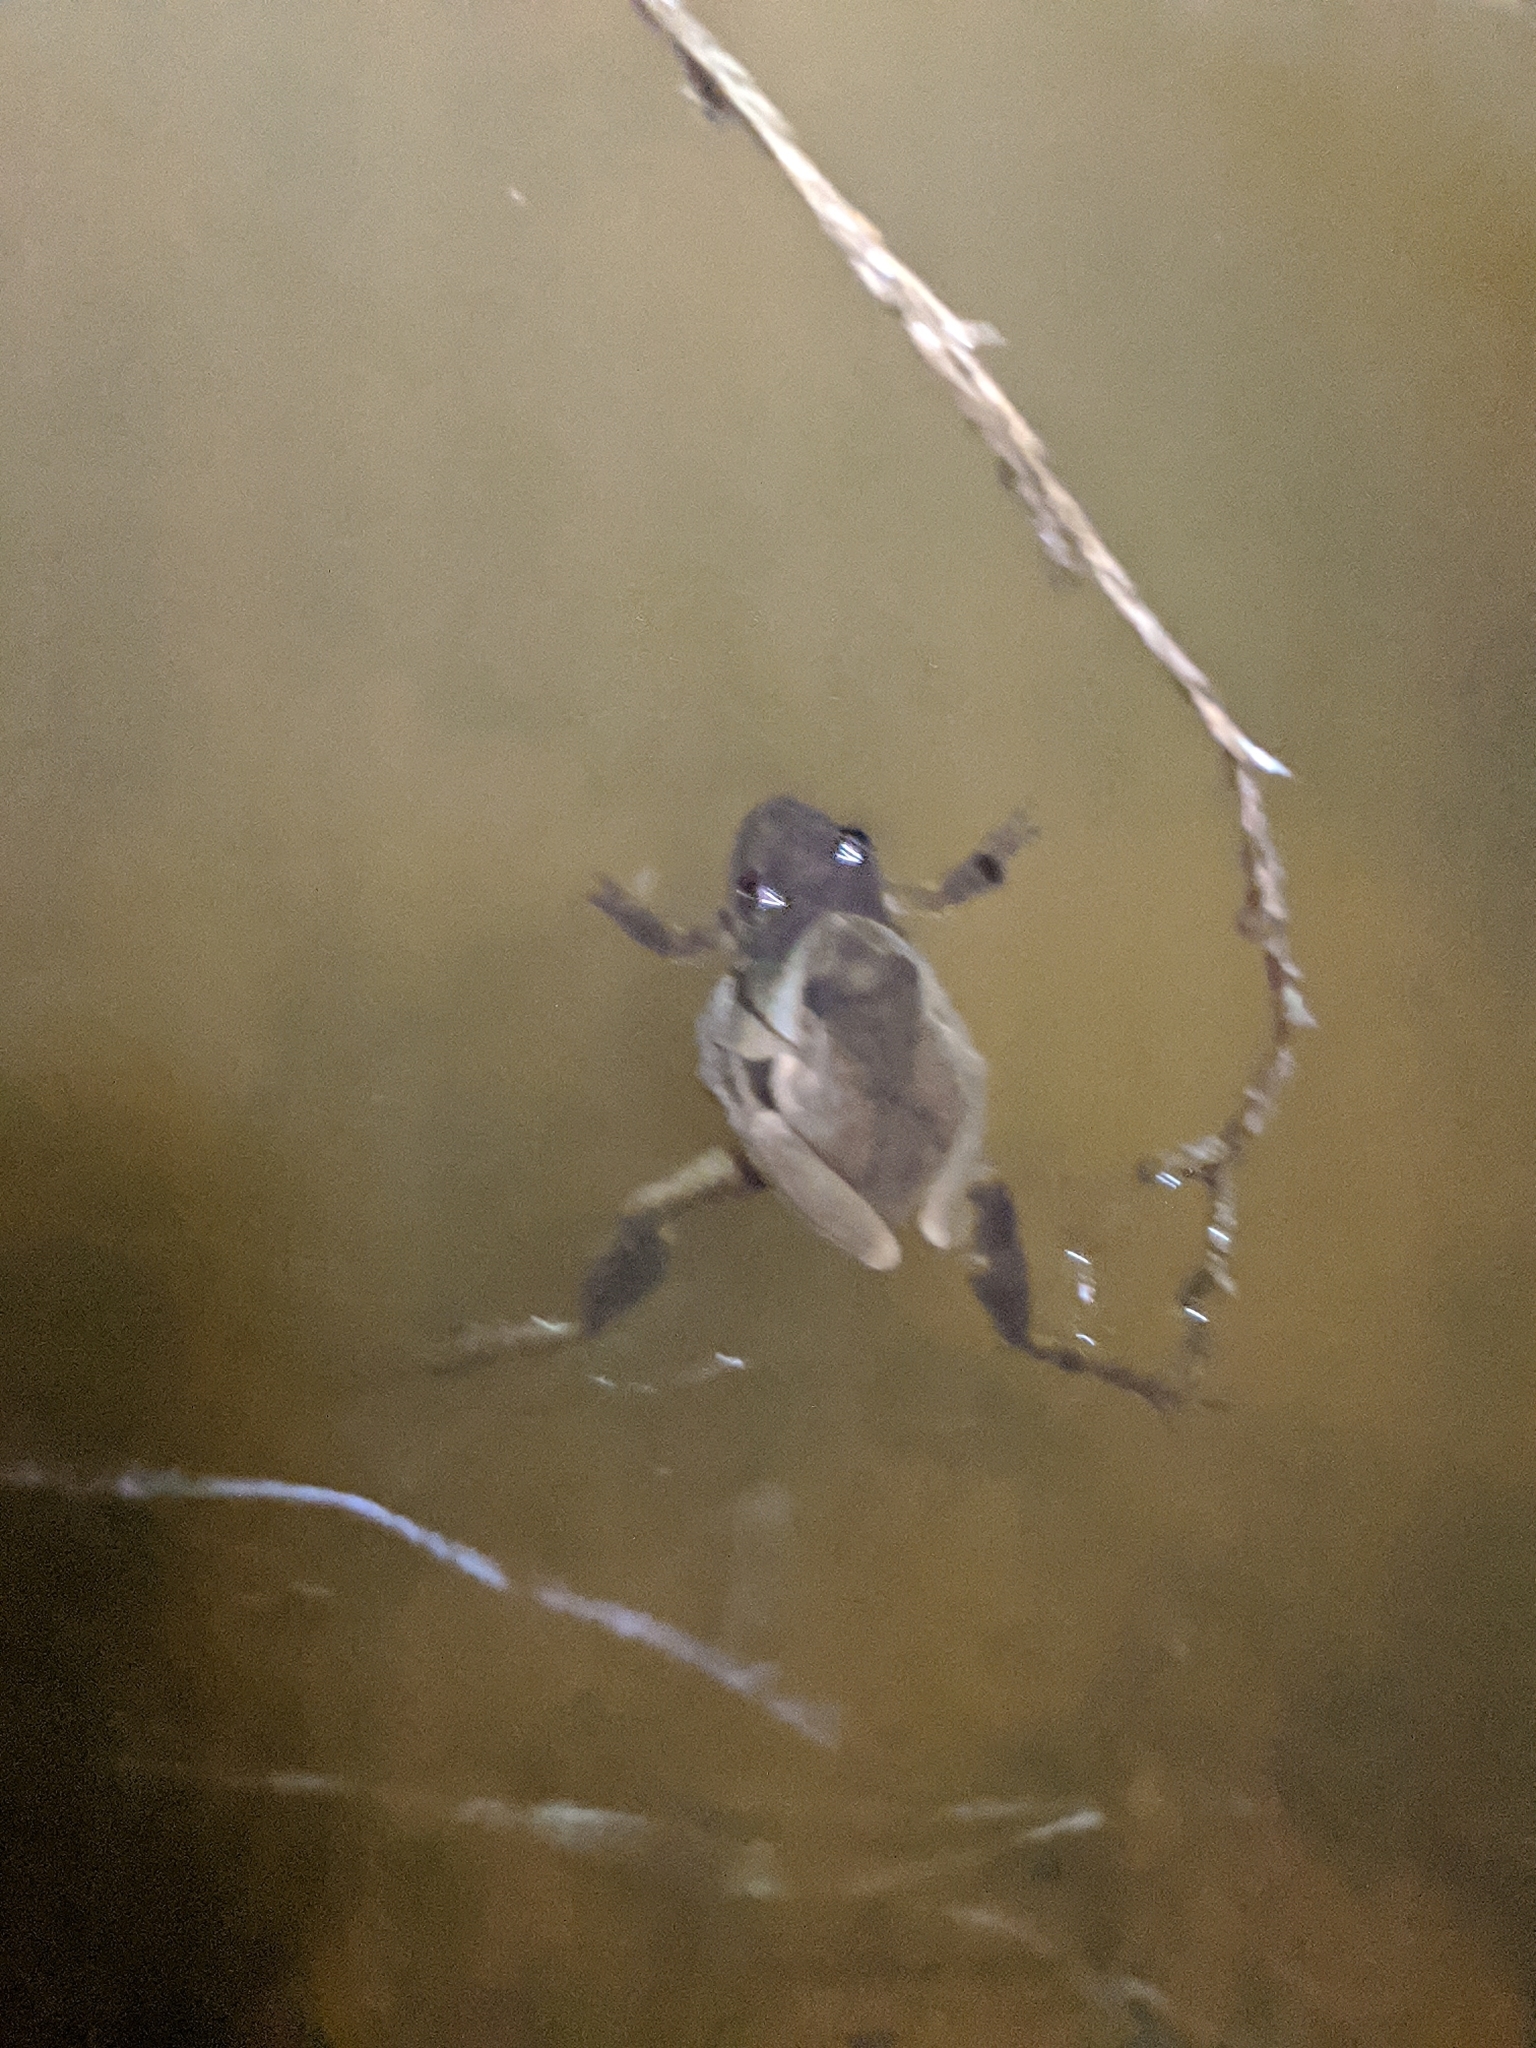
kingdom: Animalia
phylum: Chordata
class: Amphibia
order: Anura
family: Hylidae
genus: Pseudacris
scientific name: Pseudacris crucifer
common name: Spring peeper
